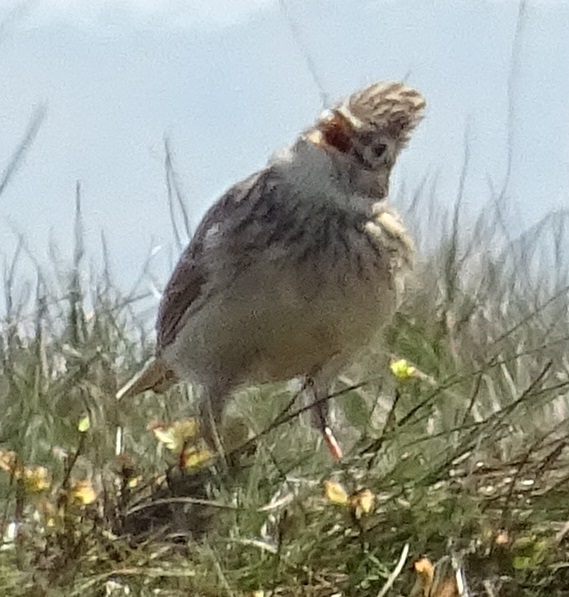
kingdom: Animalia
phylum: Chordata
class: Aves
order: Passeriformes
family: Alaudidae
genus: Alauda
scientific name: Alauda arvensis
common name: Eurasian skylark
